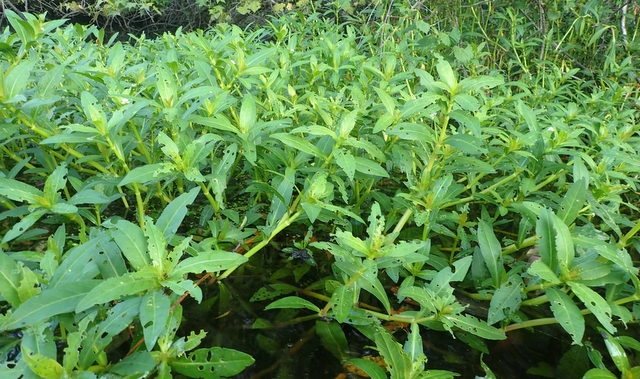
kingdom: Plantae
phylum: Tracheophyta
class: Magnoliopsida
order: Caryophyllales
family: Amaranthaceae
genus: Alternanthera
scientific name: Alternanthera philoxeroides
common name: Alligatorweed
